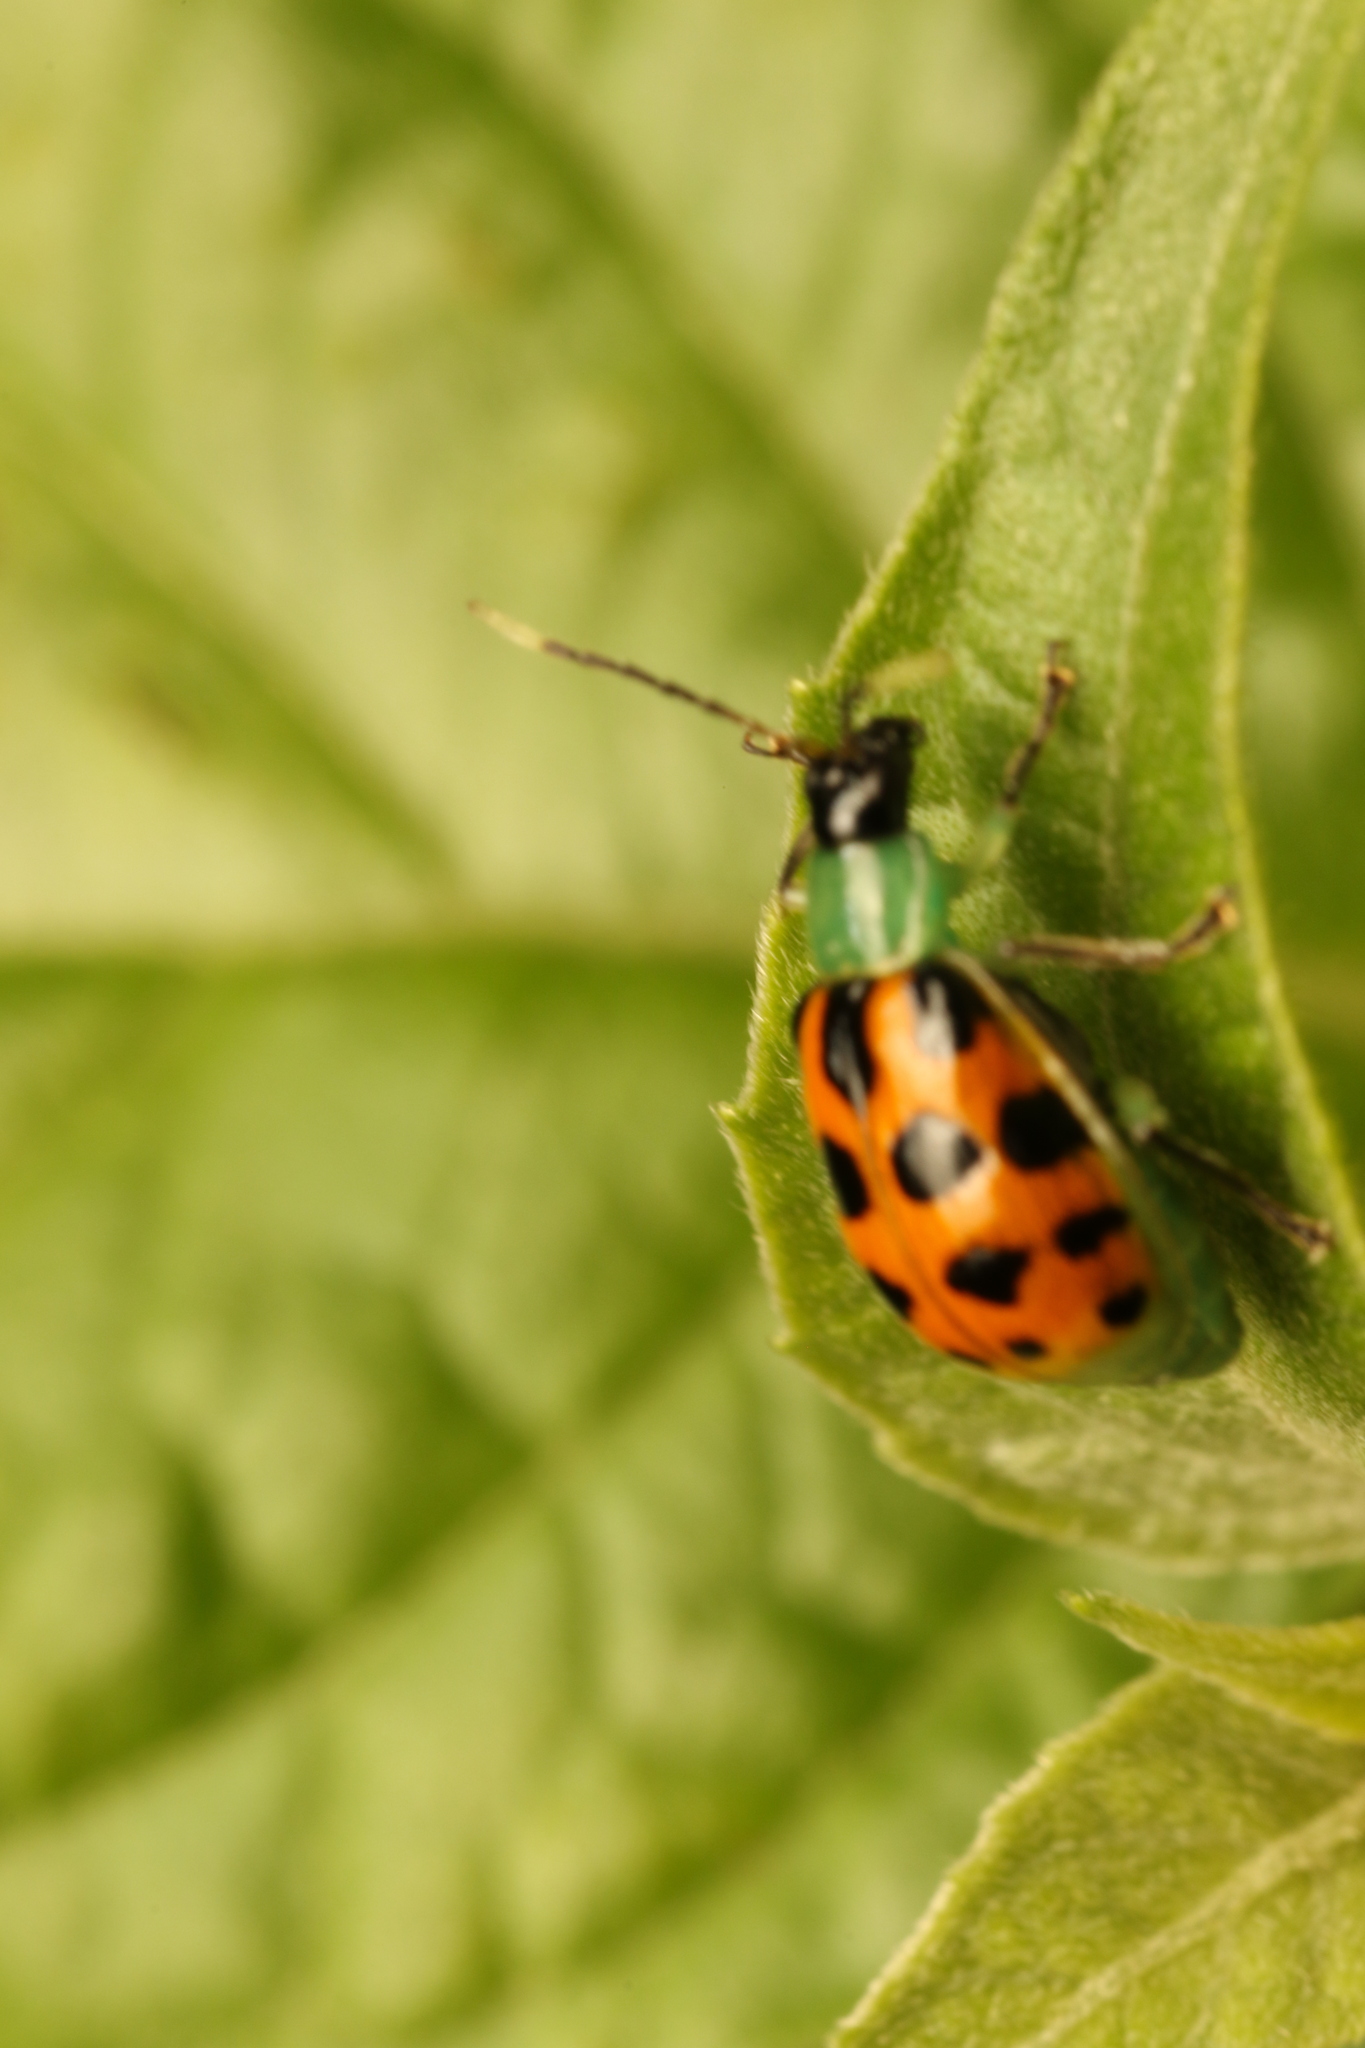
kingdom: Animalia
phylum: Arthropoda
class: Insecta
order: Coleoptera
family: Chrysomelidae
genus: Diabrotica
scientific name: Diabrotica limitata
